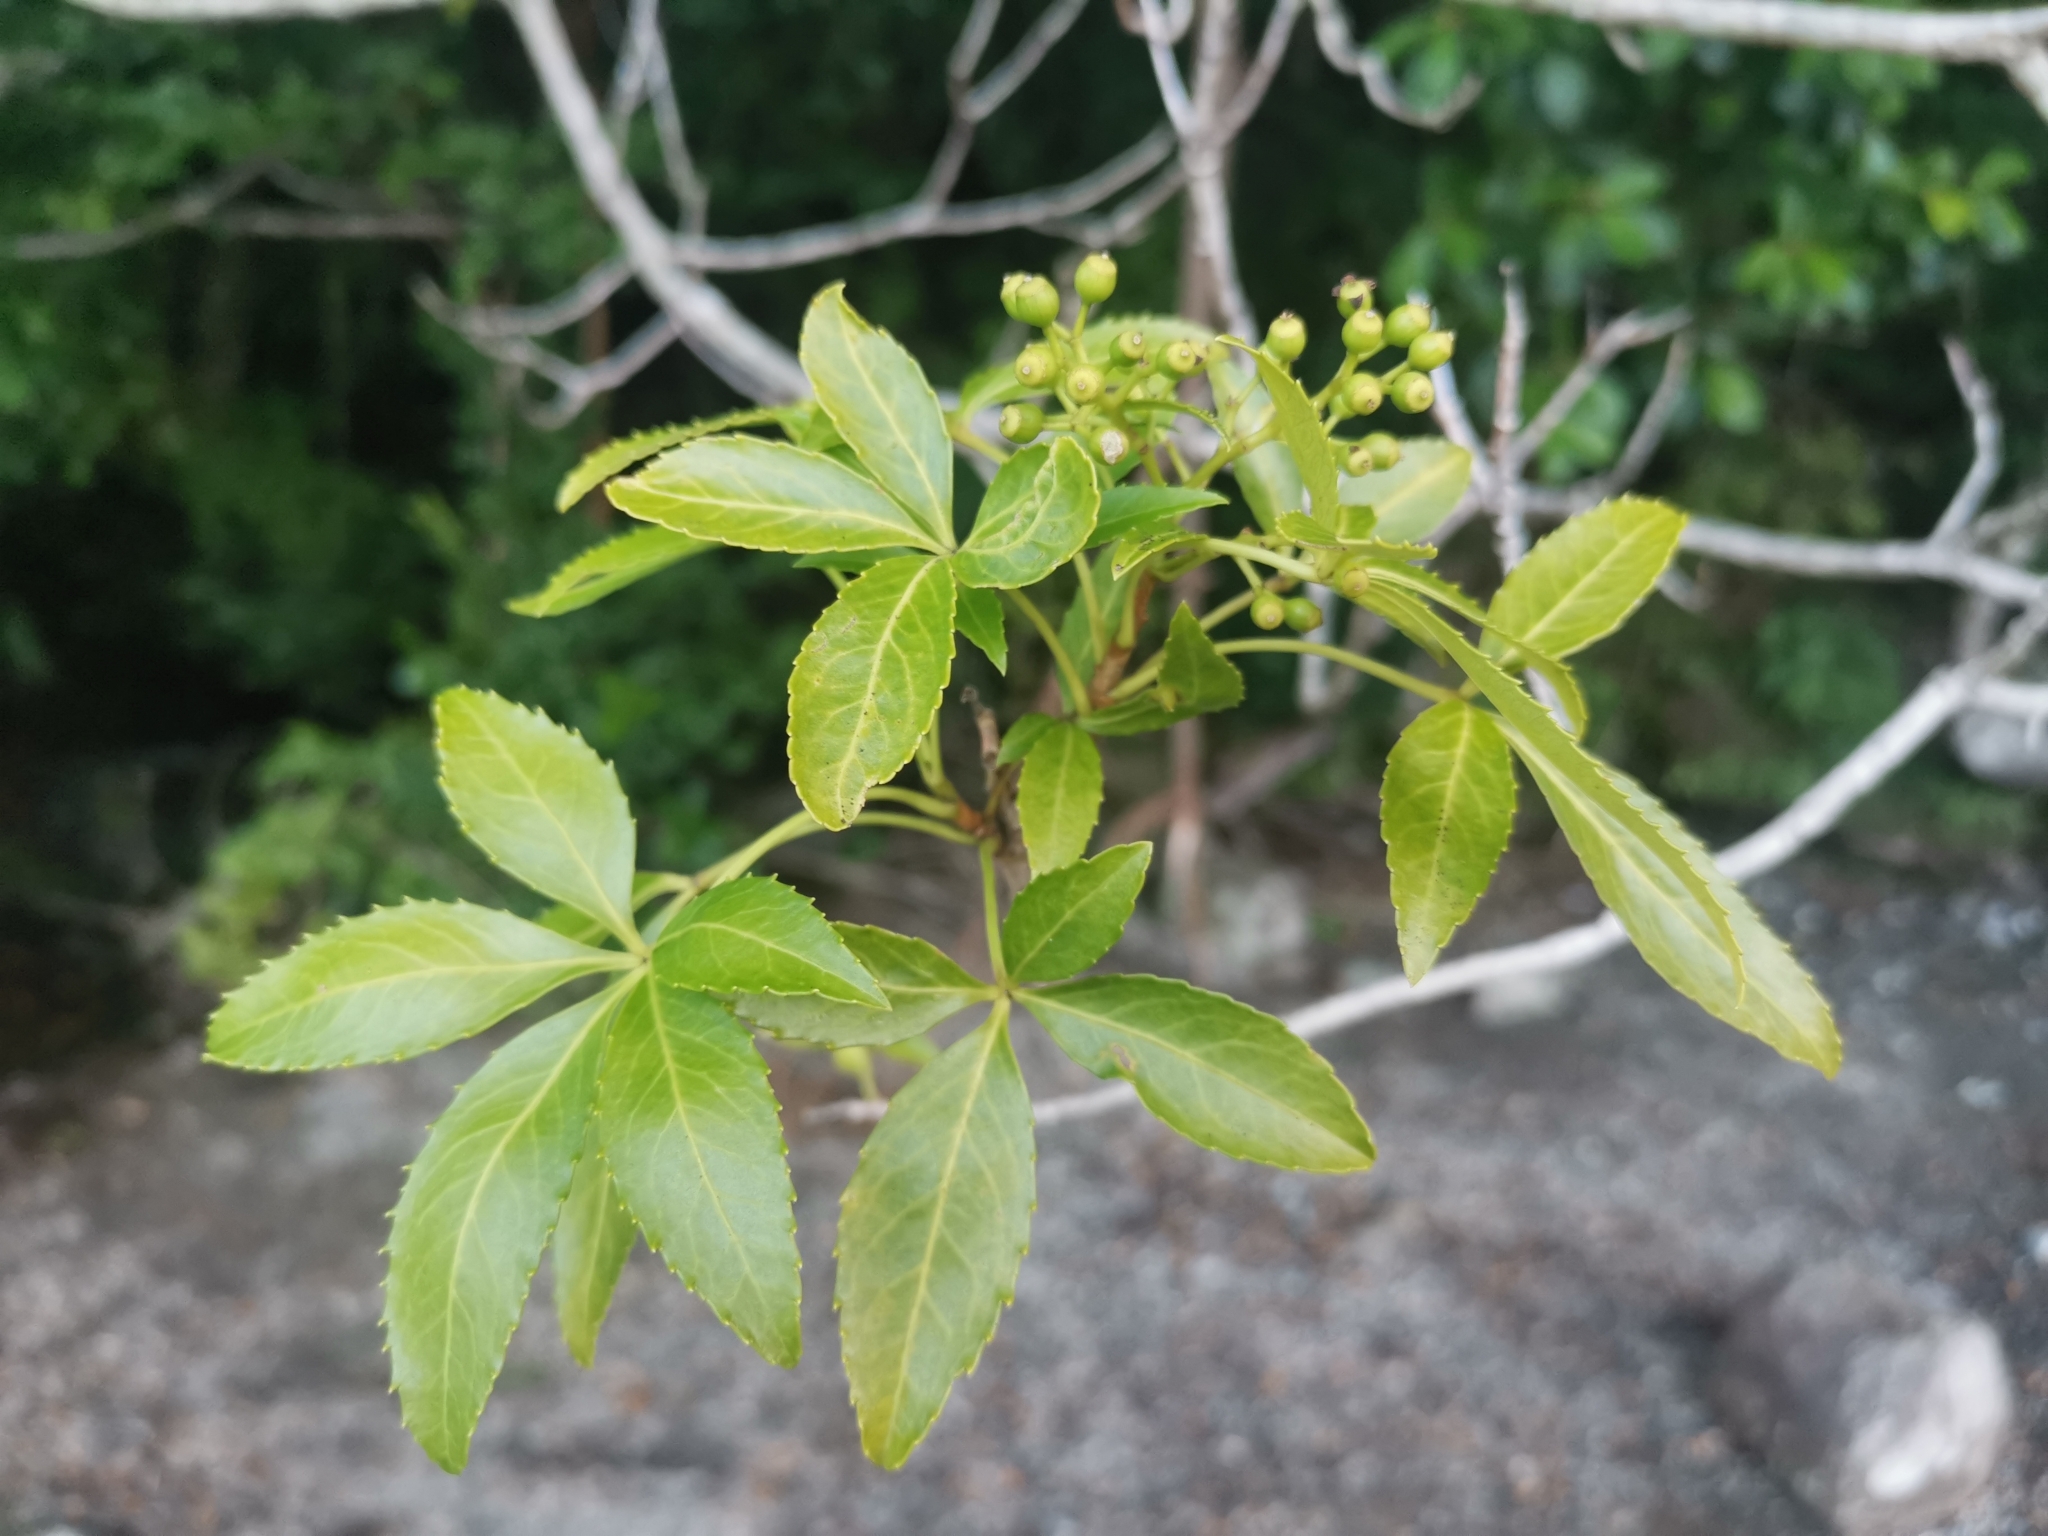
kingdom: Plantae
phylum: Tracheophyta
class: Magnoliopsida
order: Apiales
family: Araliaceae
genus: Raukaua
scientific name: Raukaua laetevirens
